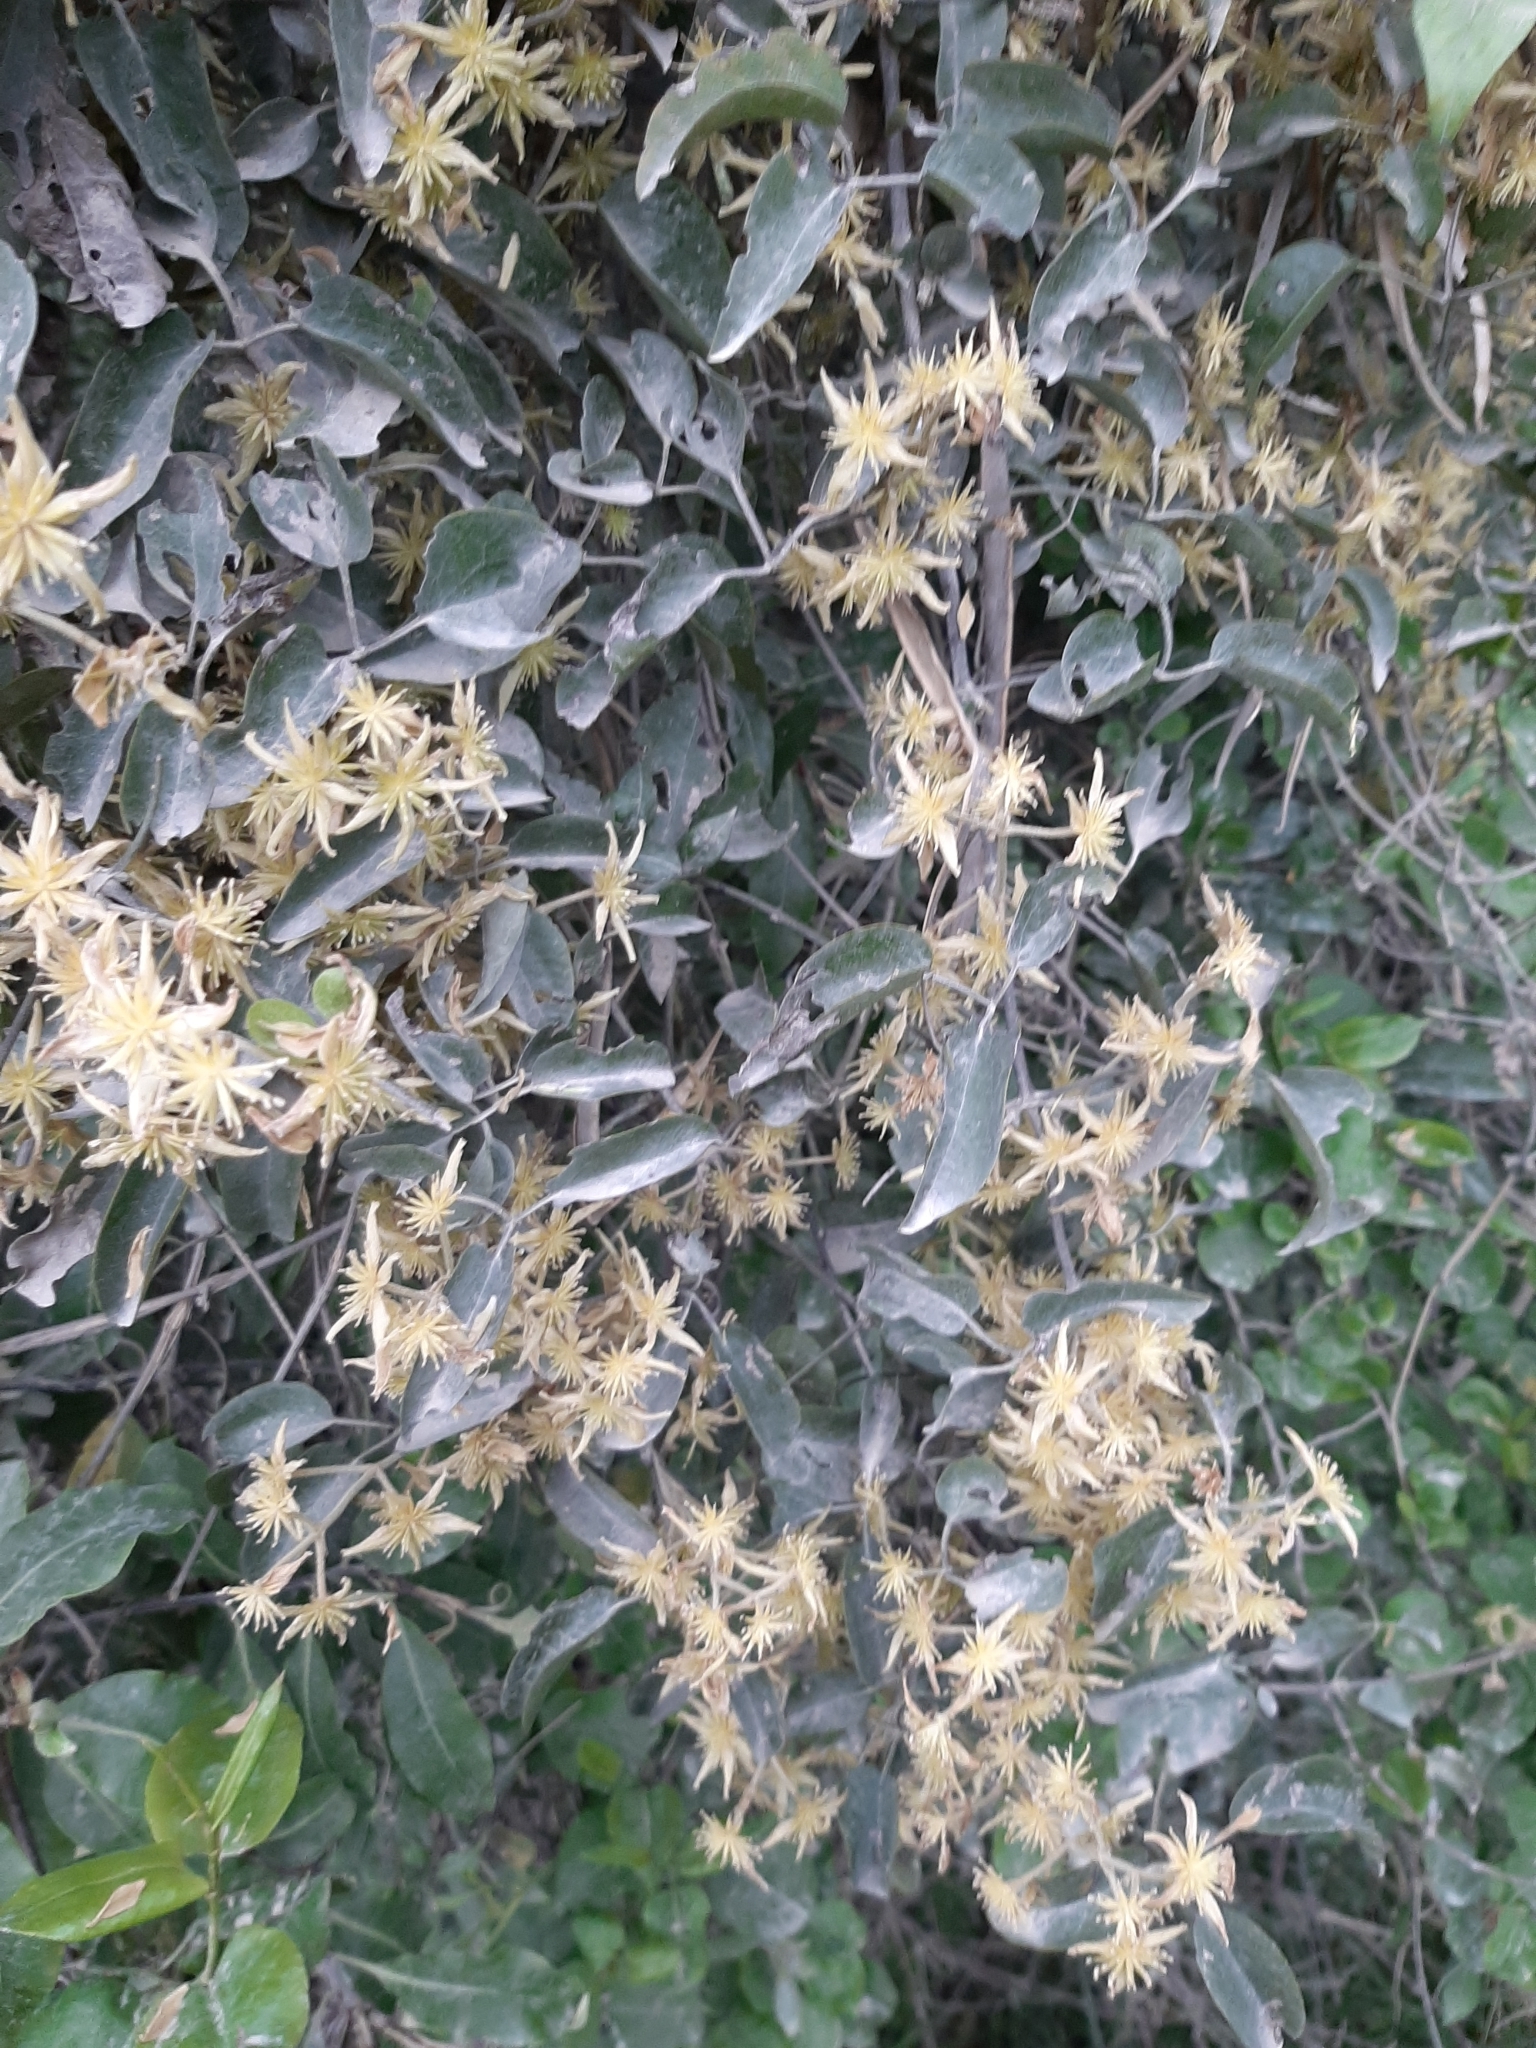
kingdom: Plantae
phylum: Tracheophyta
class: Magnoliopsida
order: Ranunculales
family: Ranunculaceae
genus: Clematis
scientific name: Clematis foetida
